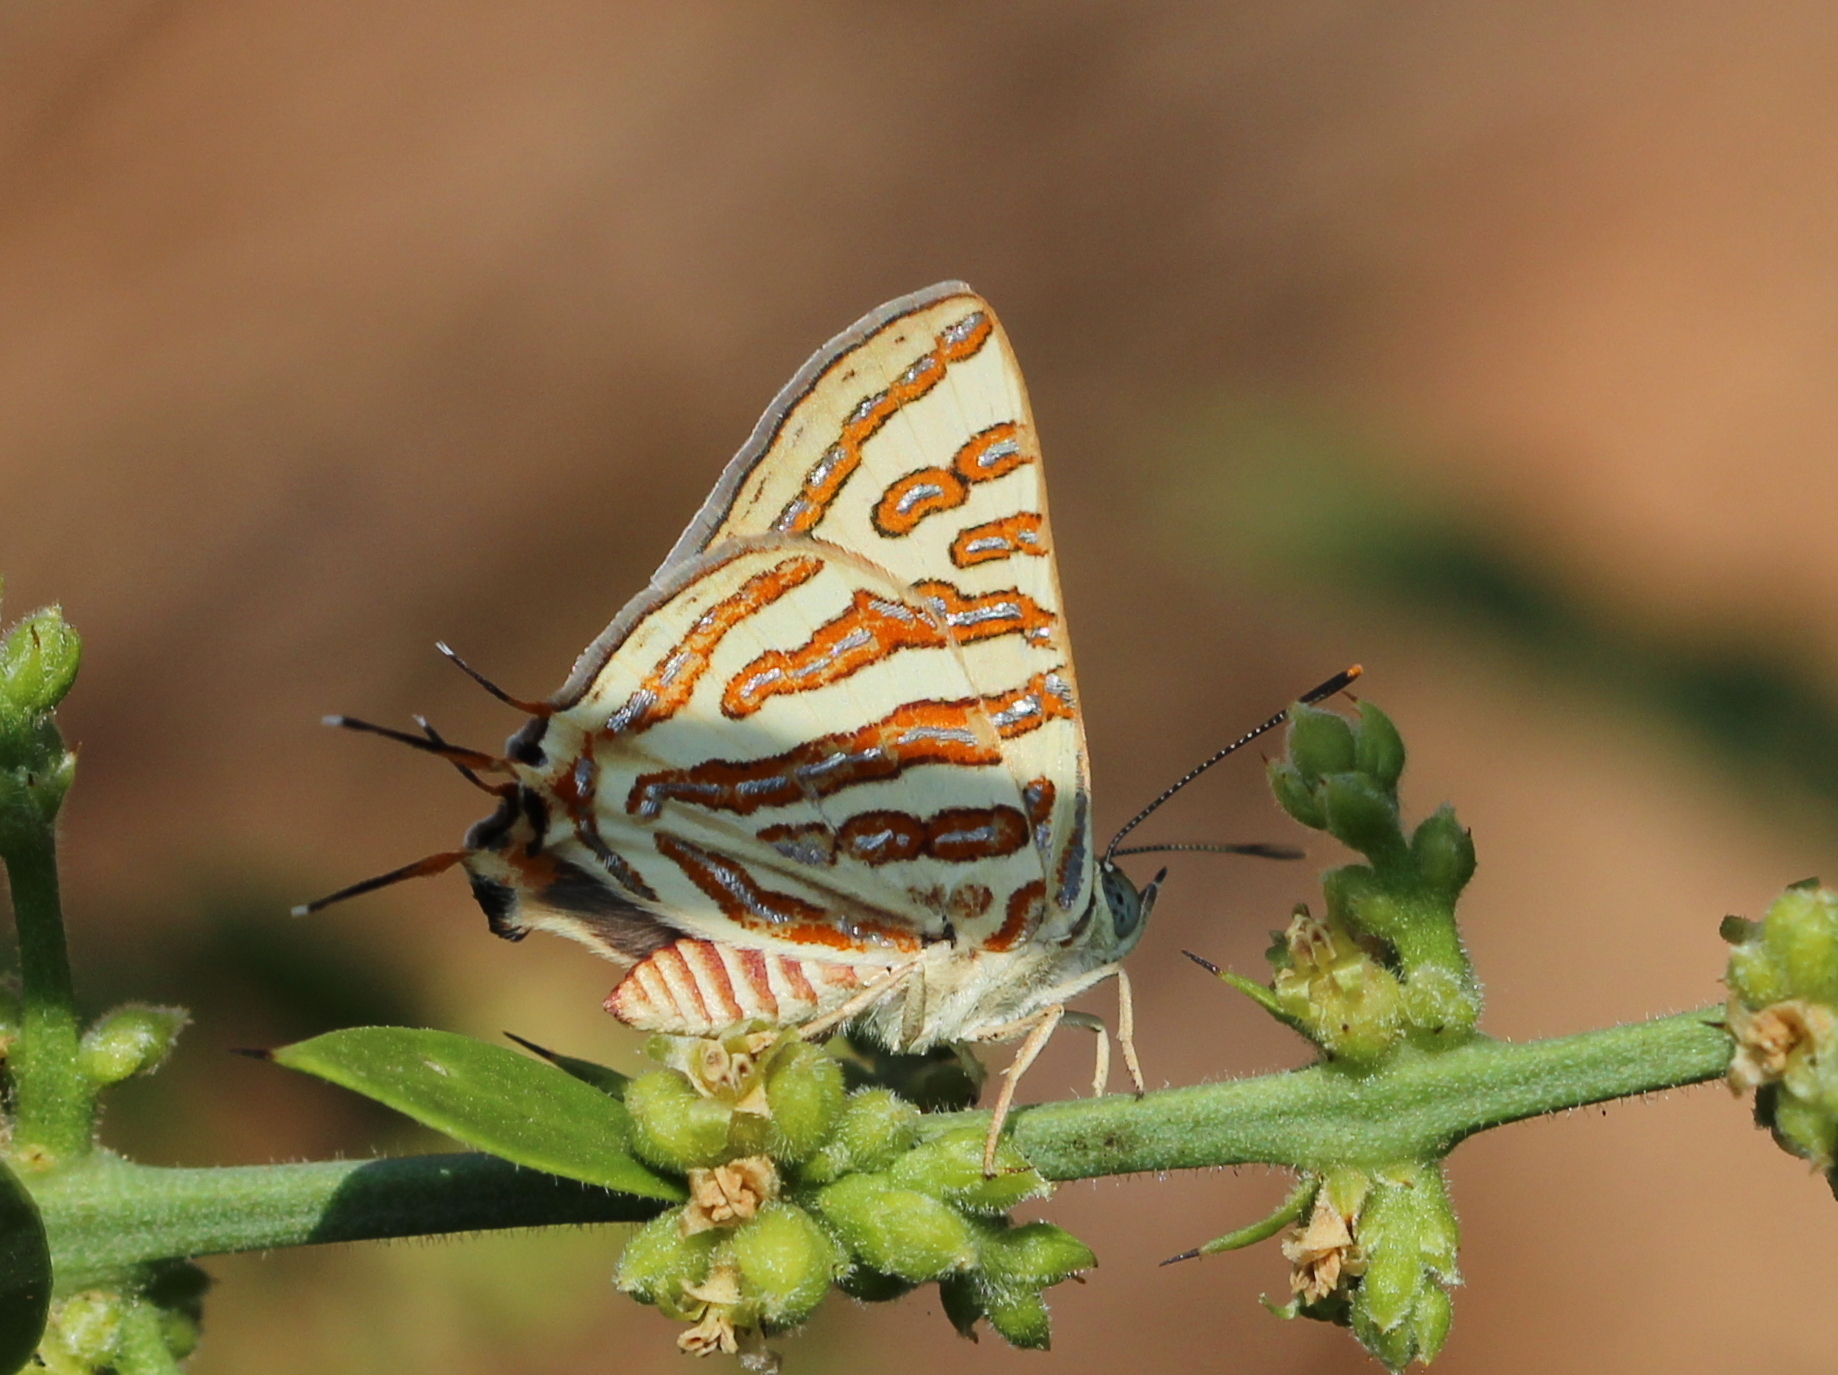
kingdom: Animalia
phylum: Arthropoda
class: Insecta
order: Lepidoptera
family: Lycaenidae
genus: Cigaritis
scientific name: Cigaritis vulcanus
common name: Common silverline
